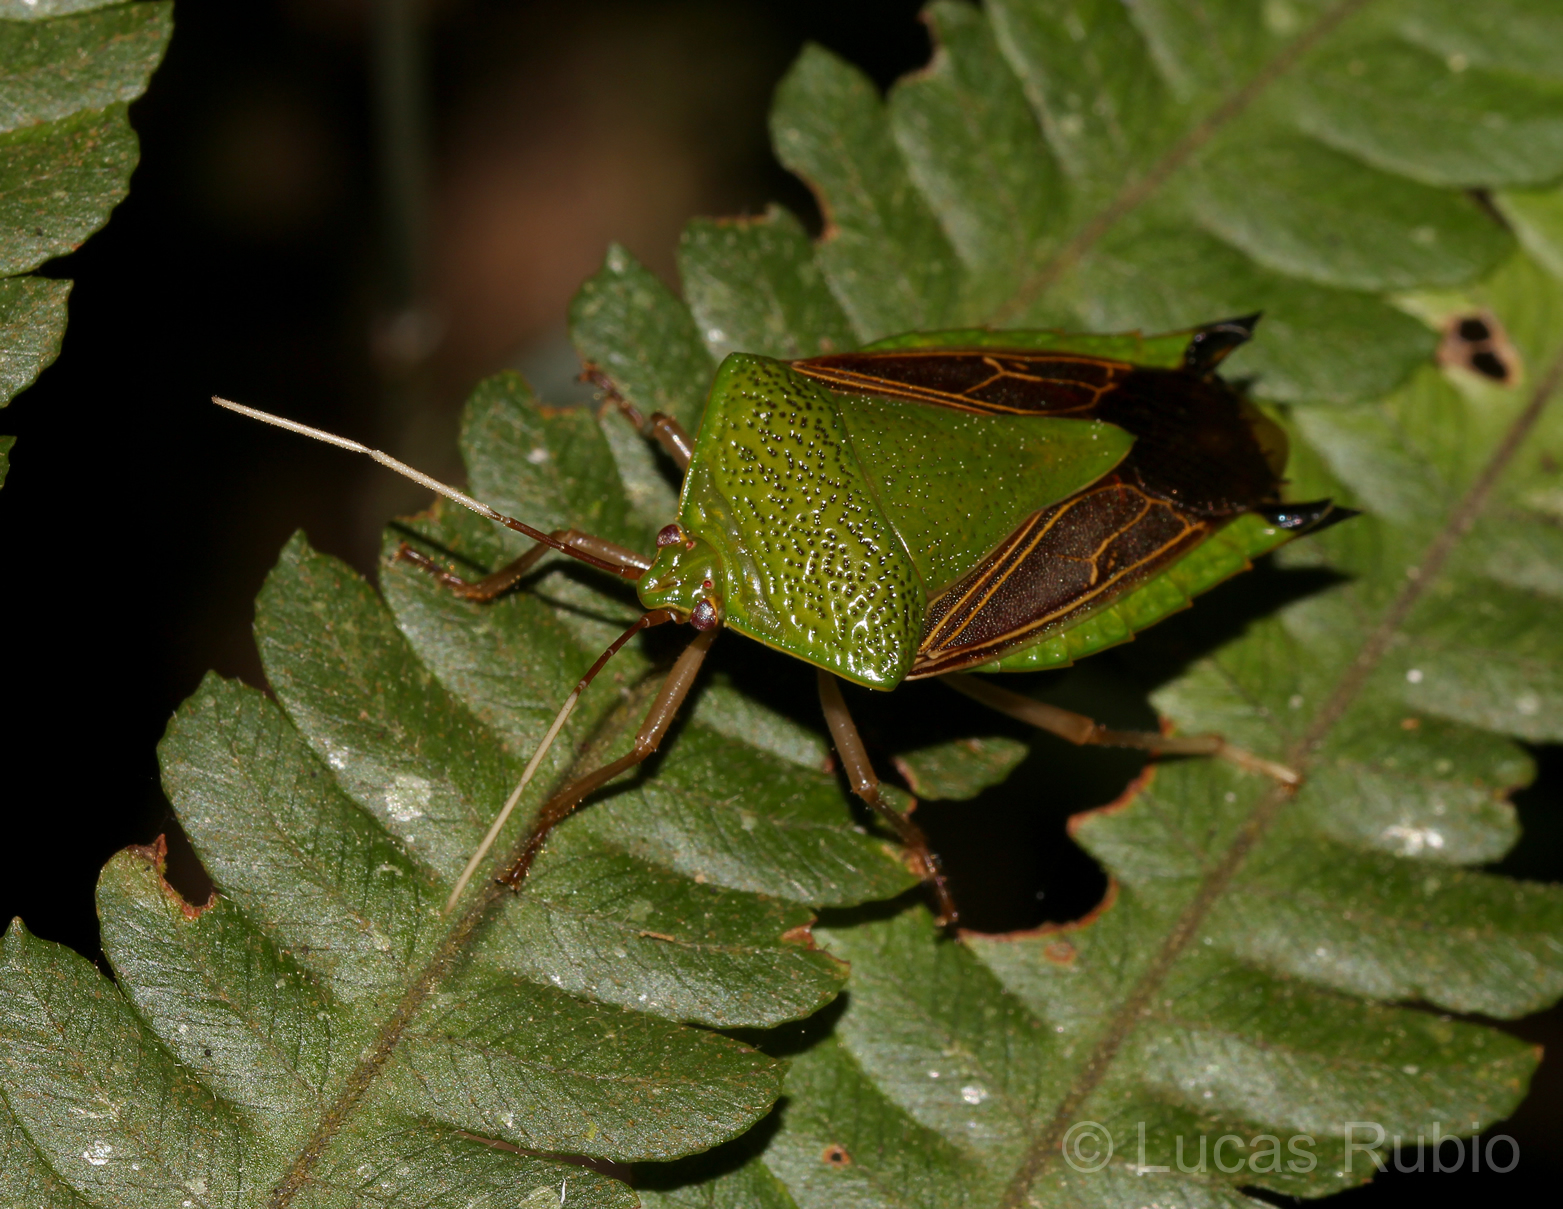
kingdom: Animalia
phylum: Arthropoda
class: Insecta
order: Hemiptera
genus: Pygoda
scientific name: Pygoda polita
